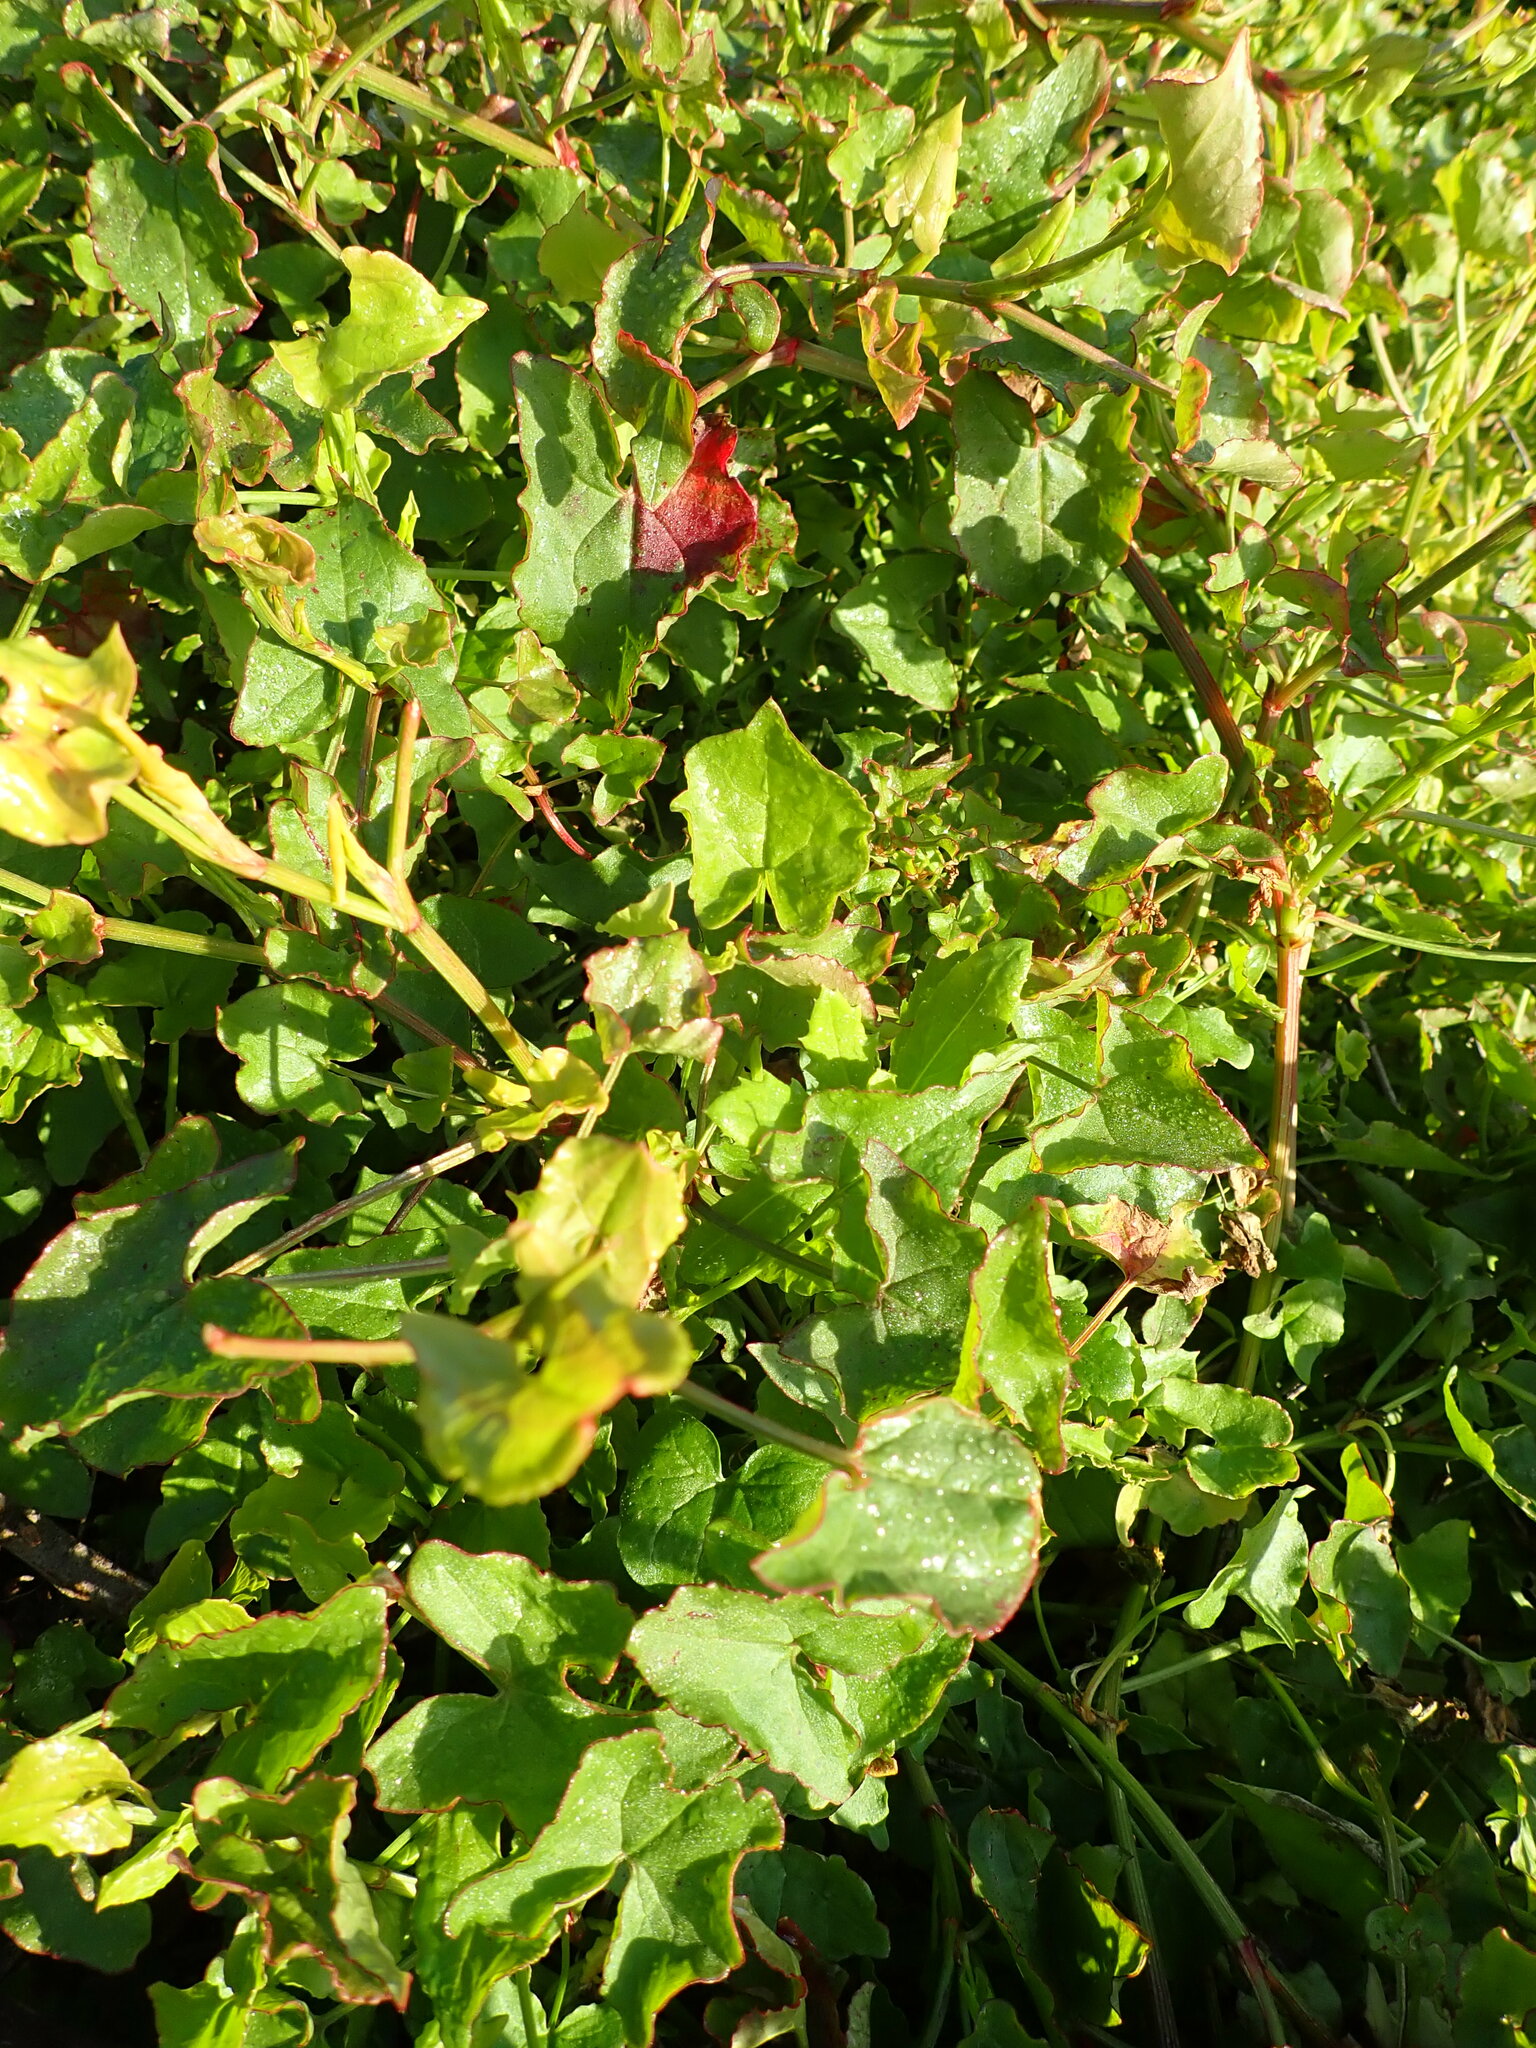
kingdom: Plantae
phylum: Tracheophyta
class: Magnoliopsida
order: Caryophyllales
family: Polygonaceae
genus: Rumex
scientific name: Rumex sagittatus
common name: Climbing dock
